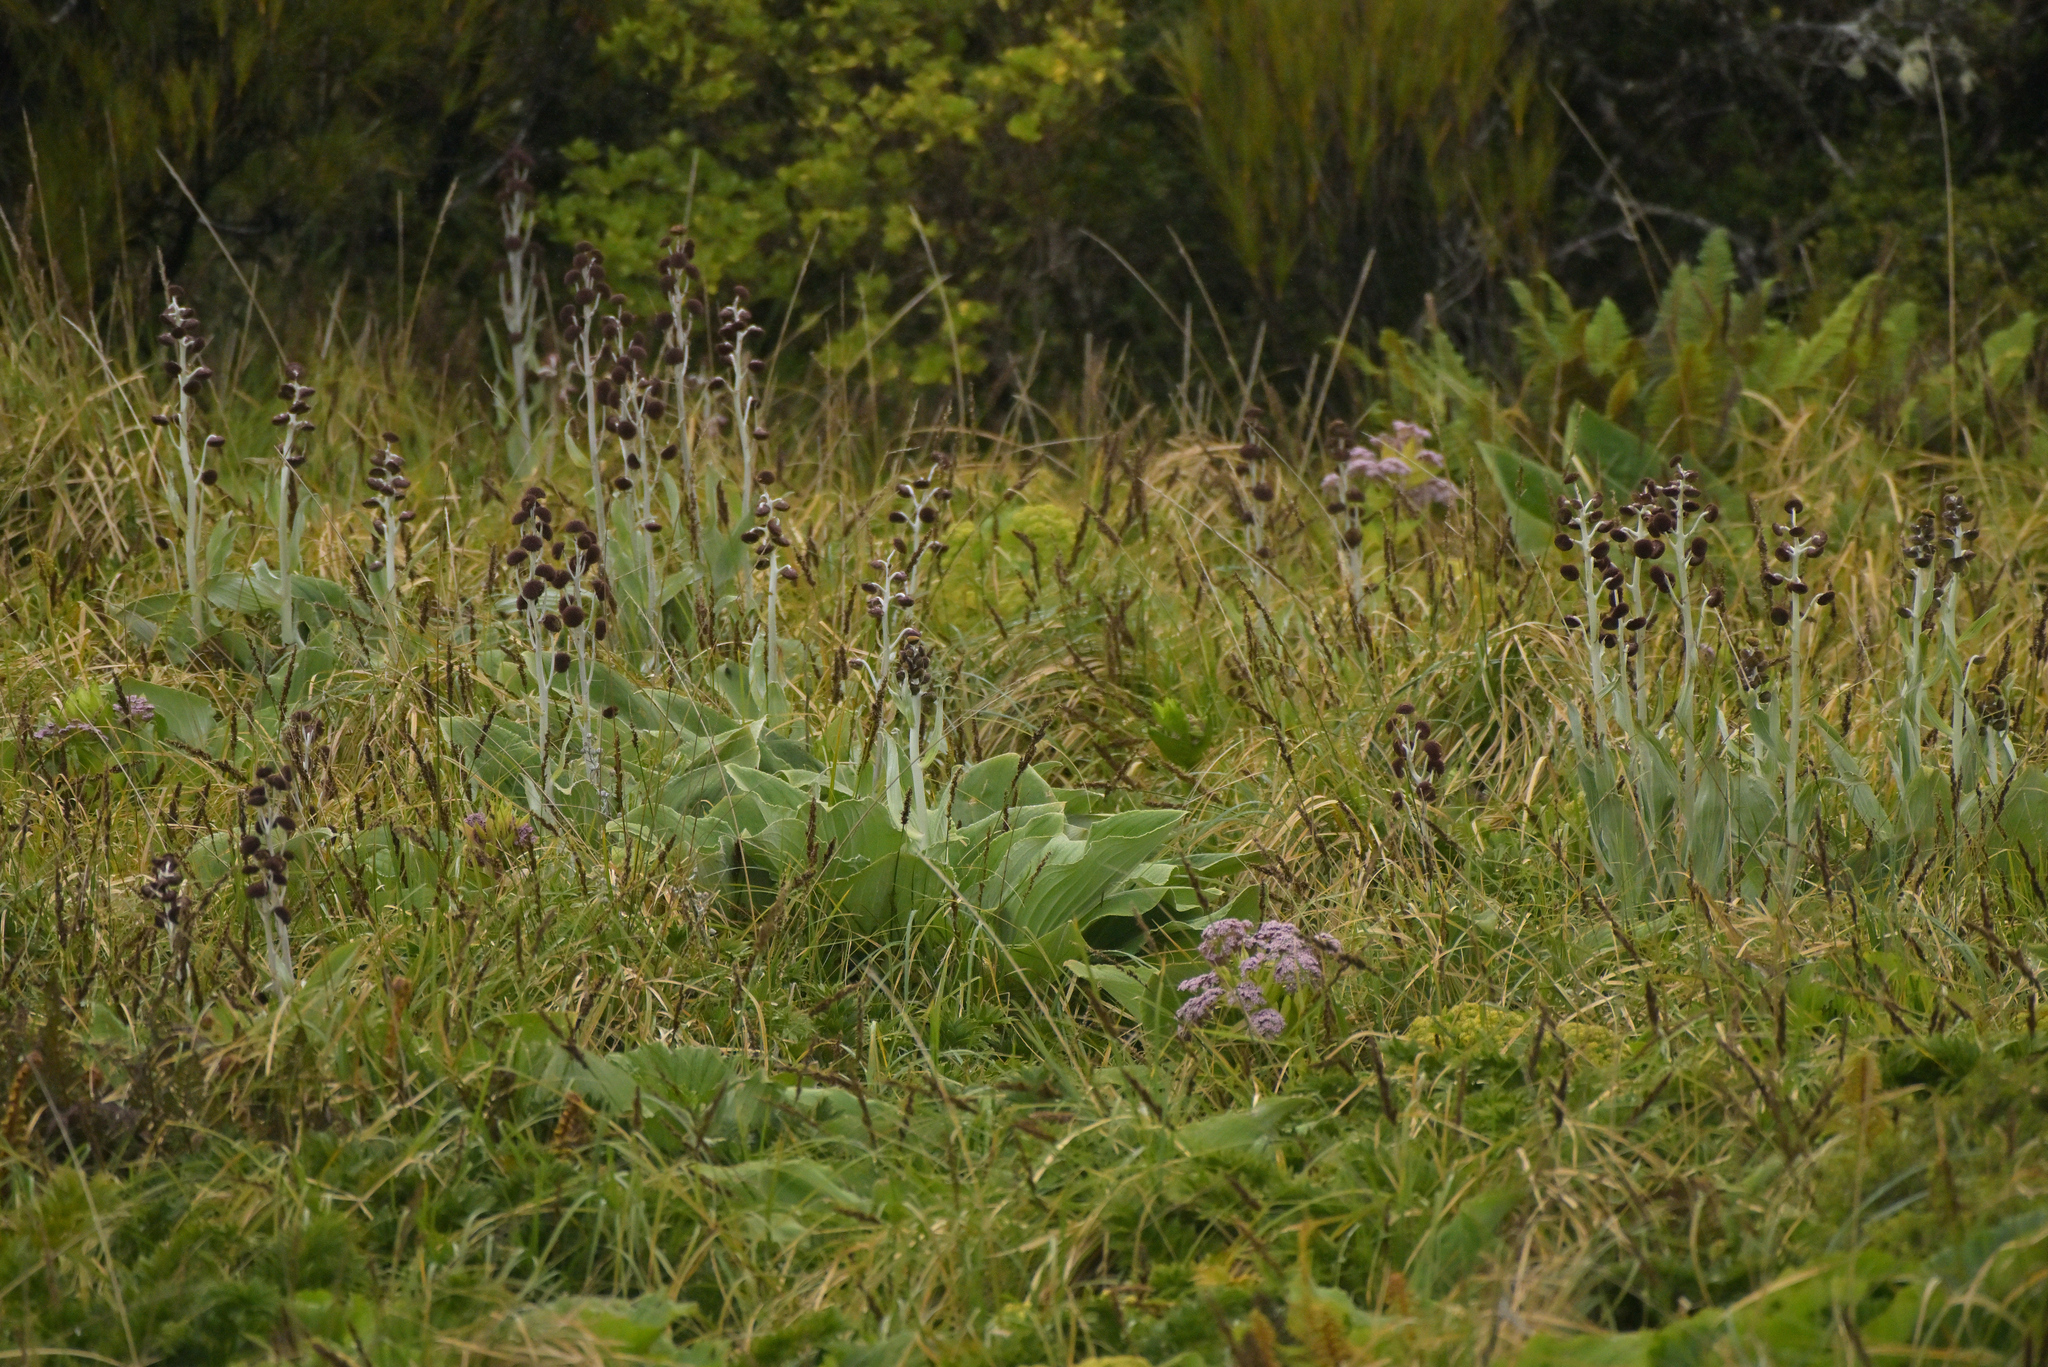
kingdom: Plantae
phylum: Tracheophyta
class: Magnoliopsida
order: Asterales
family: Asteraceae
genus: Pleurophyllum
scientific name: Pleurophyllum criniferum
